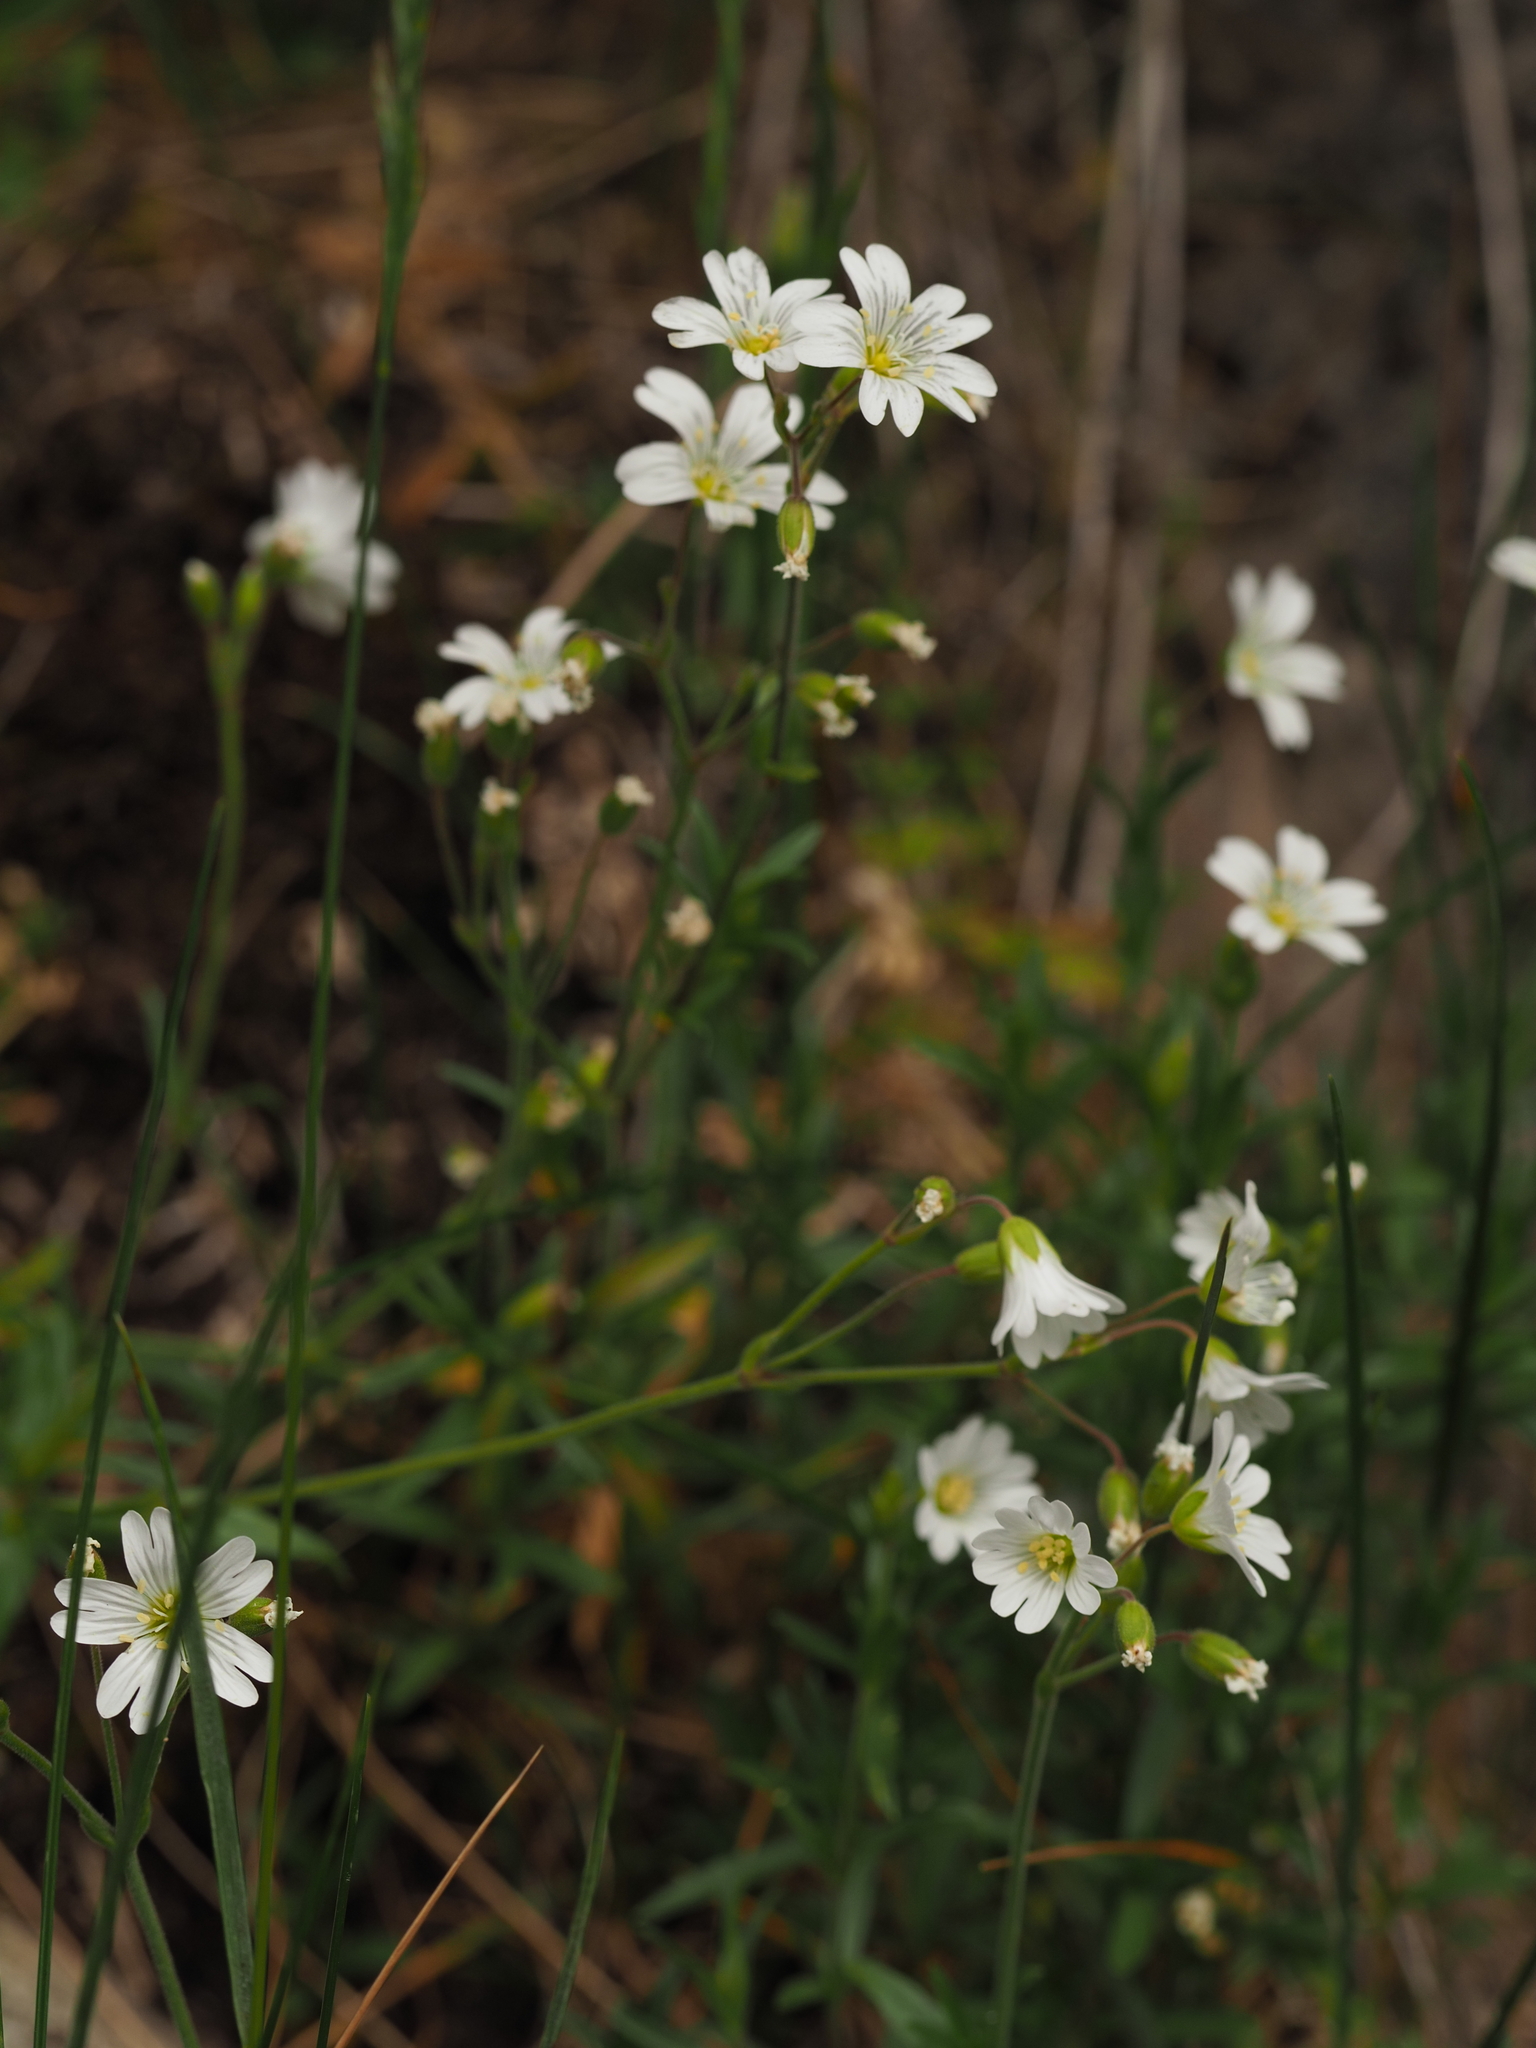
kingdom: Plantae
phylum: Tracheophyta
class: Magnoliopsida
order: Caryophyllales
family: Caryophyllaceae
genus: Cerastium
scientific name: Cerastium arvense
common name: Field mouse-ear
